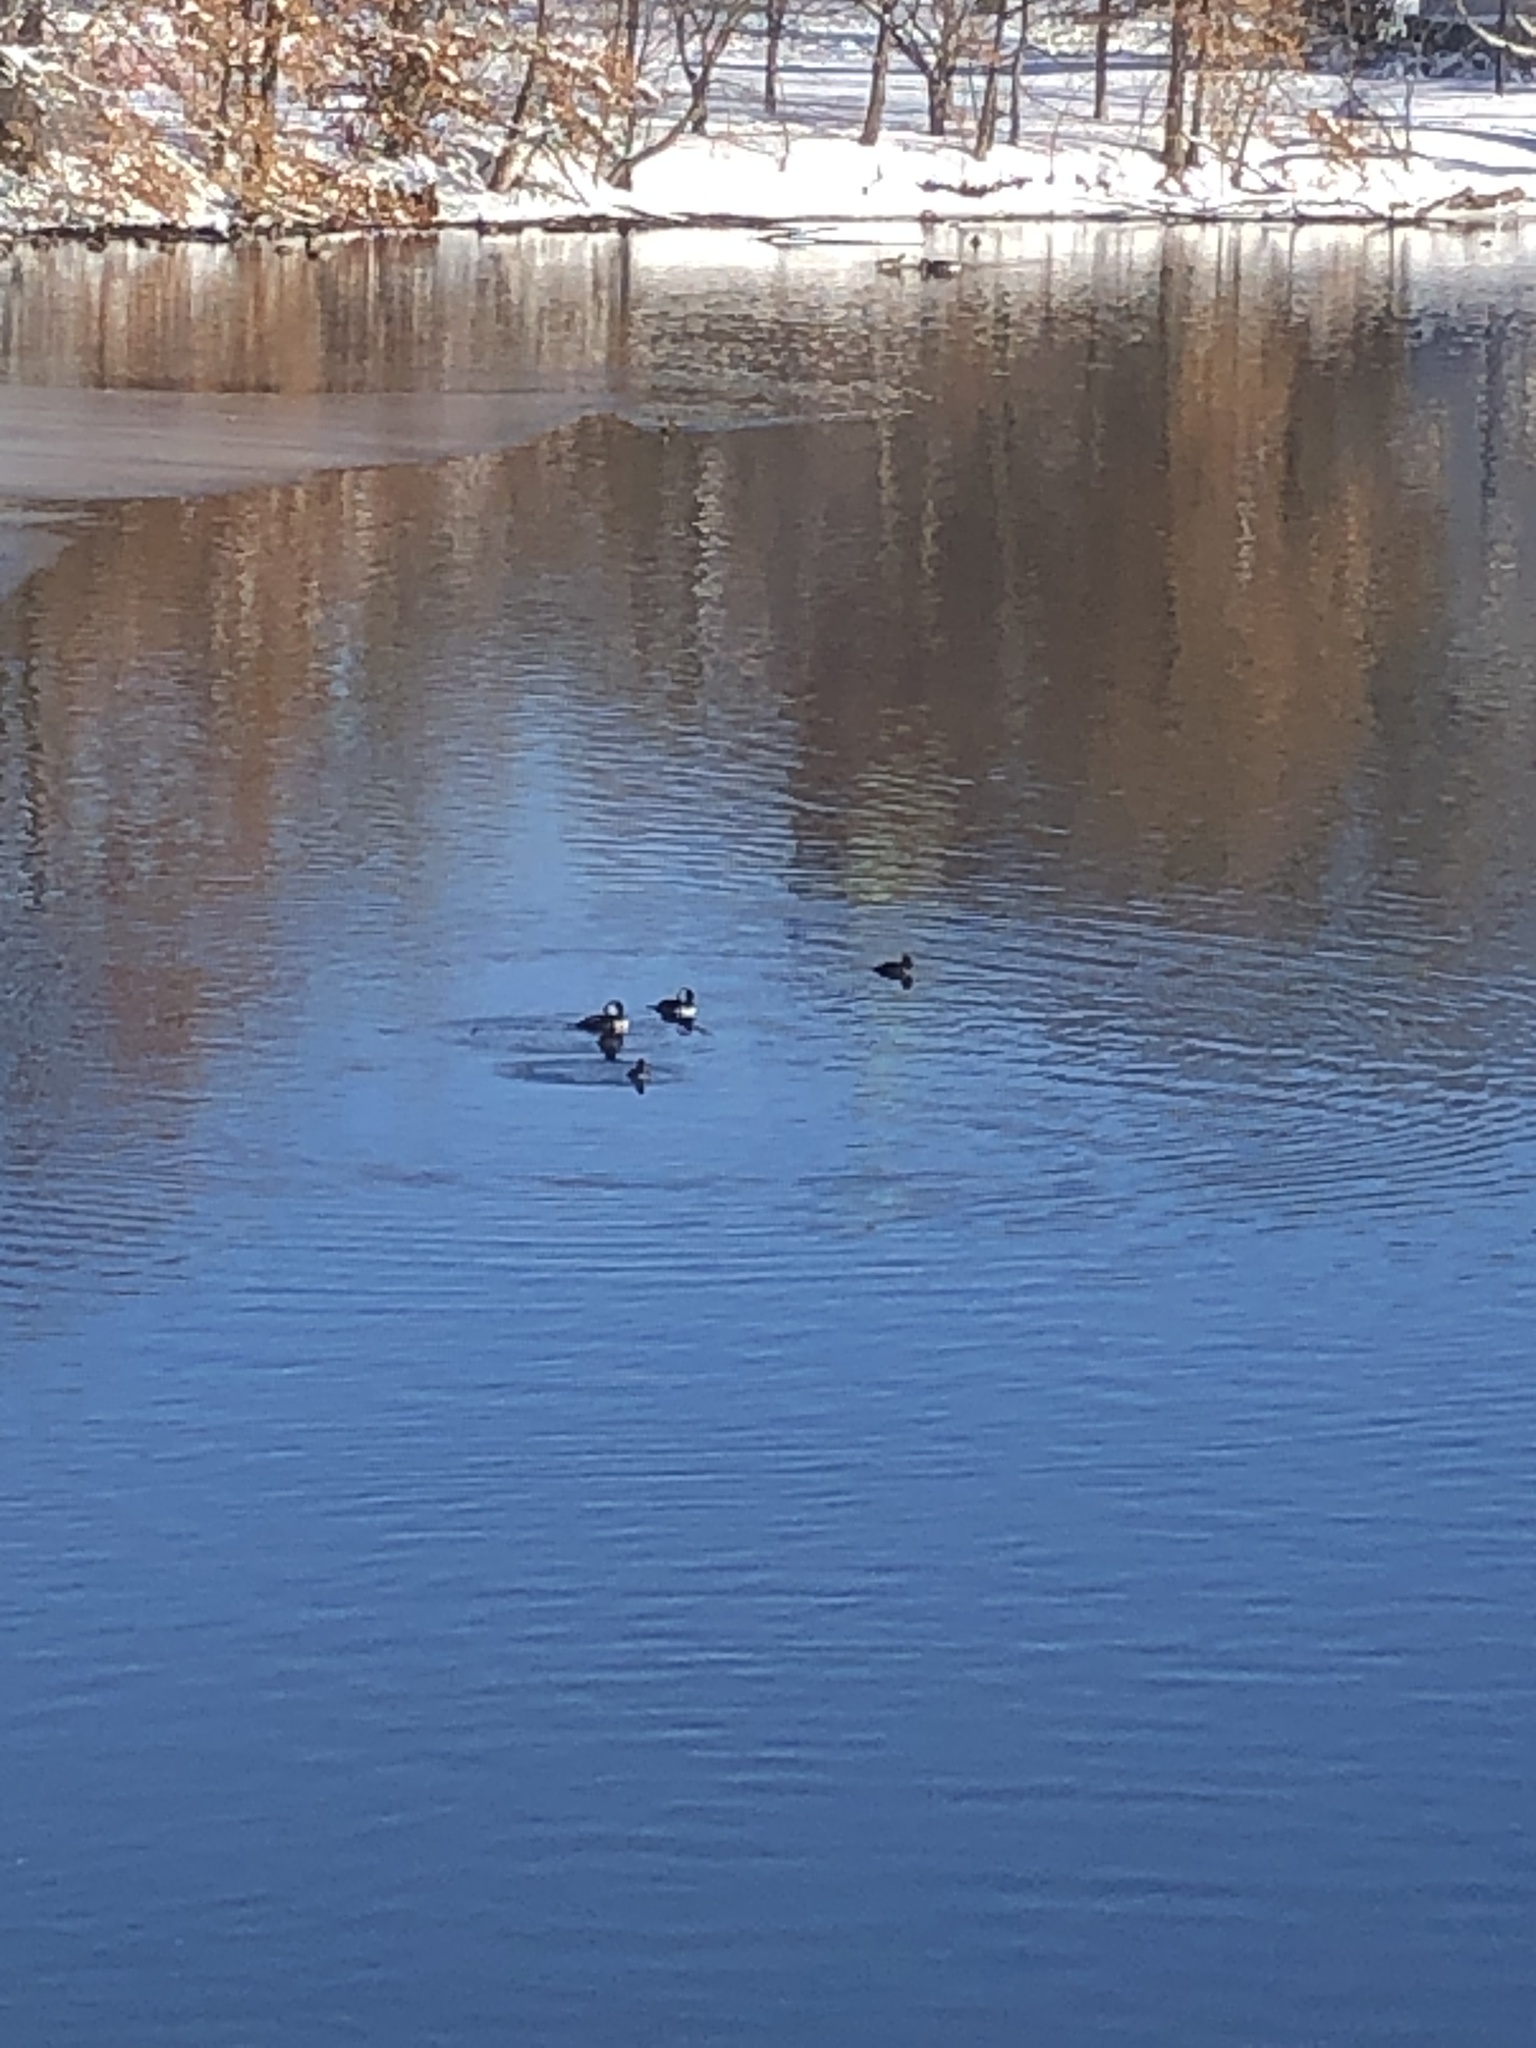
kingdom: Animalia
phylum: Chordata
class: Aves
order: Anseriformes
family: Anatidae
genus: Lophodytes
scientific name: Lophodytes cucullatus
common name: Hooded merganser
